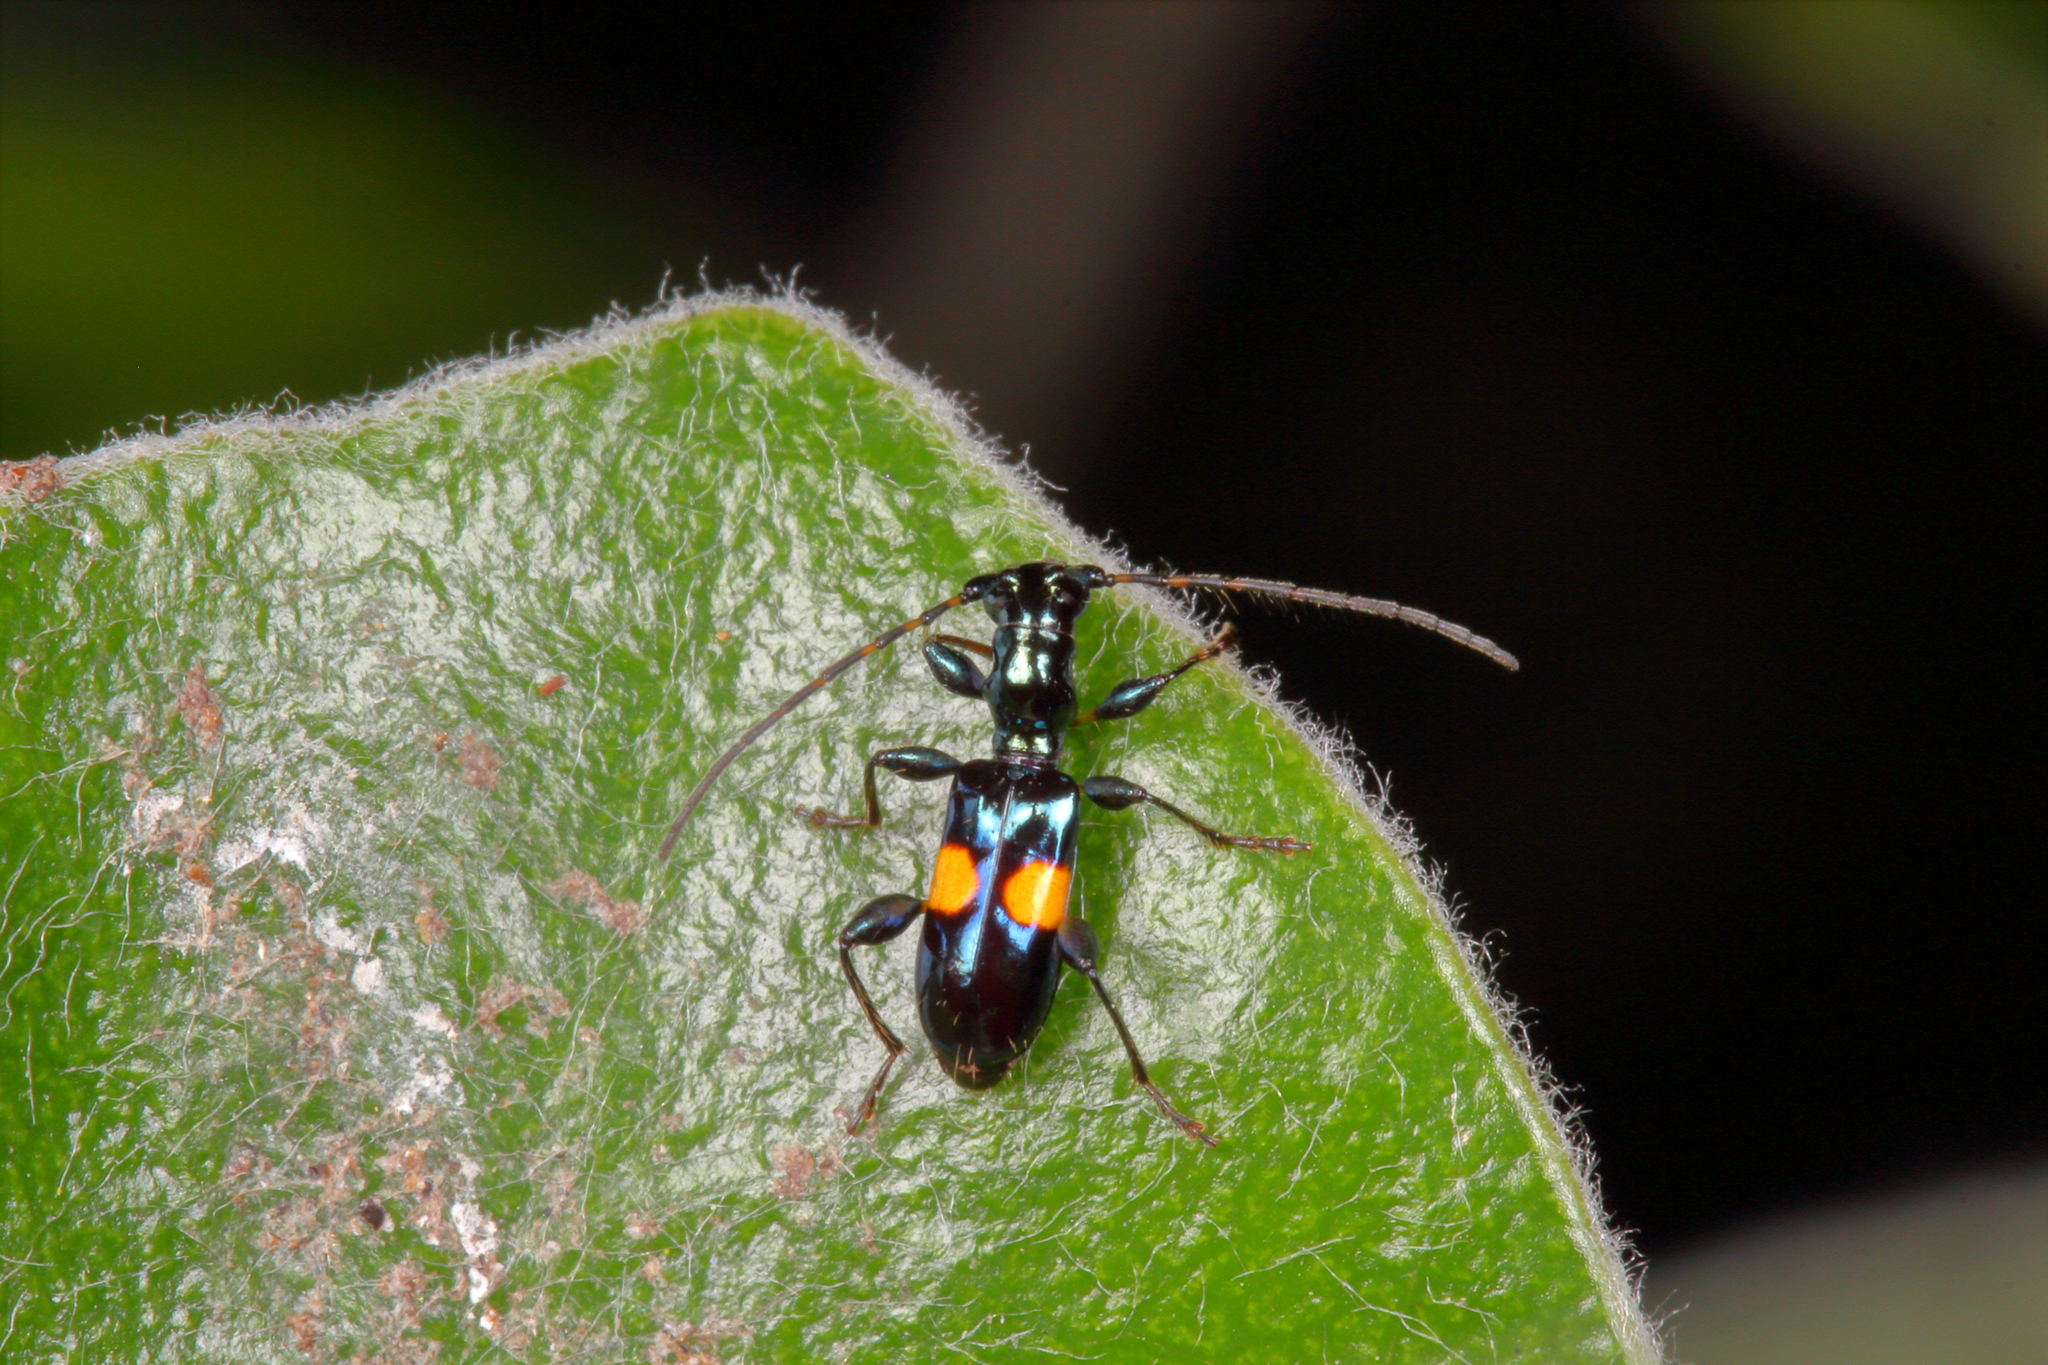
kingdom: Animalia
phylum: Arthropoda
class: Insecta
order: Coleoptera
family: Cerambycidae
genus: Zorion
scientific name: Zorion guttigerum
